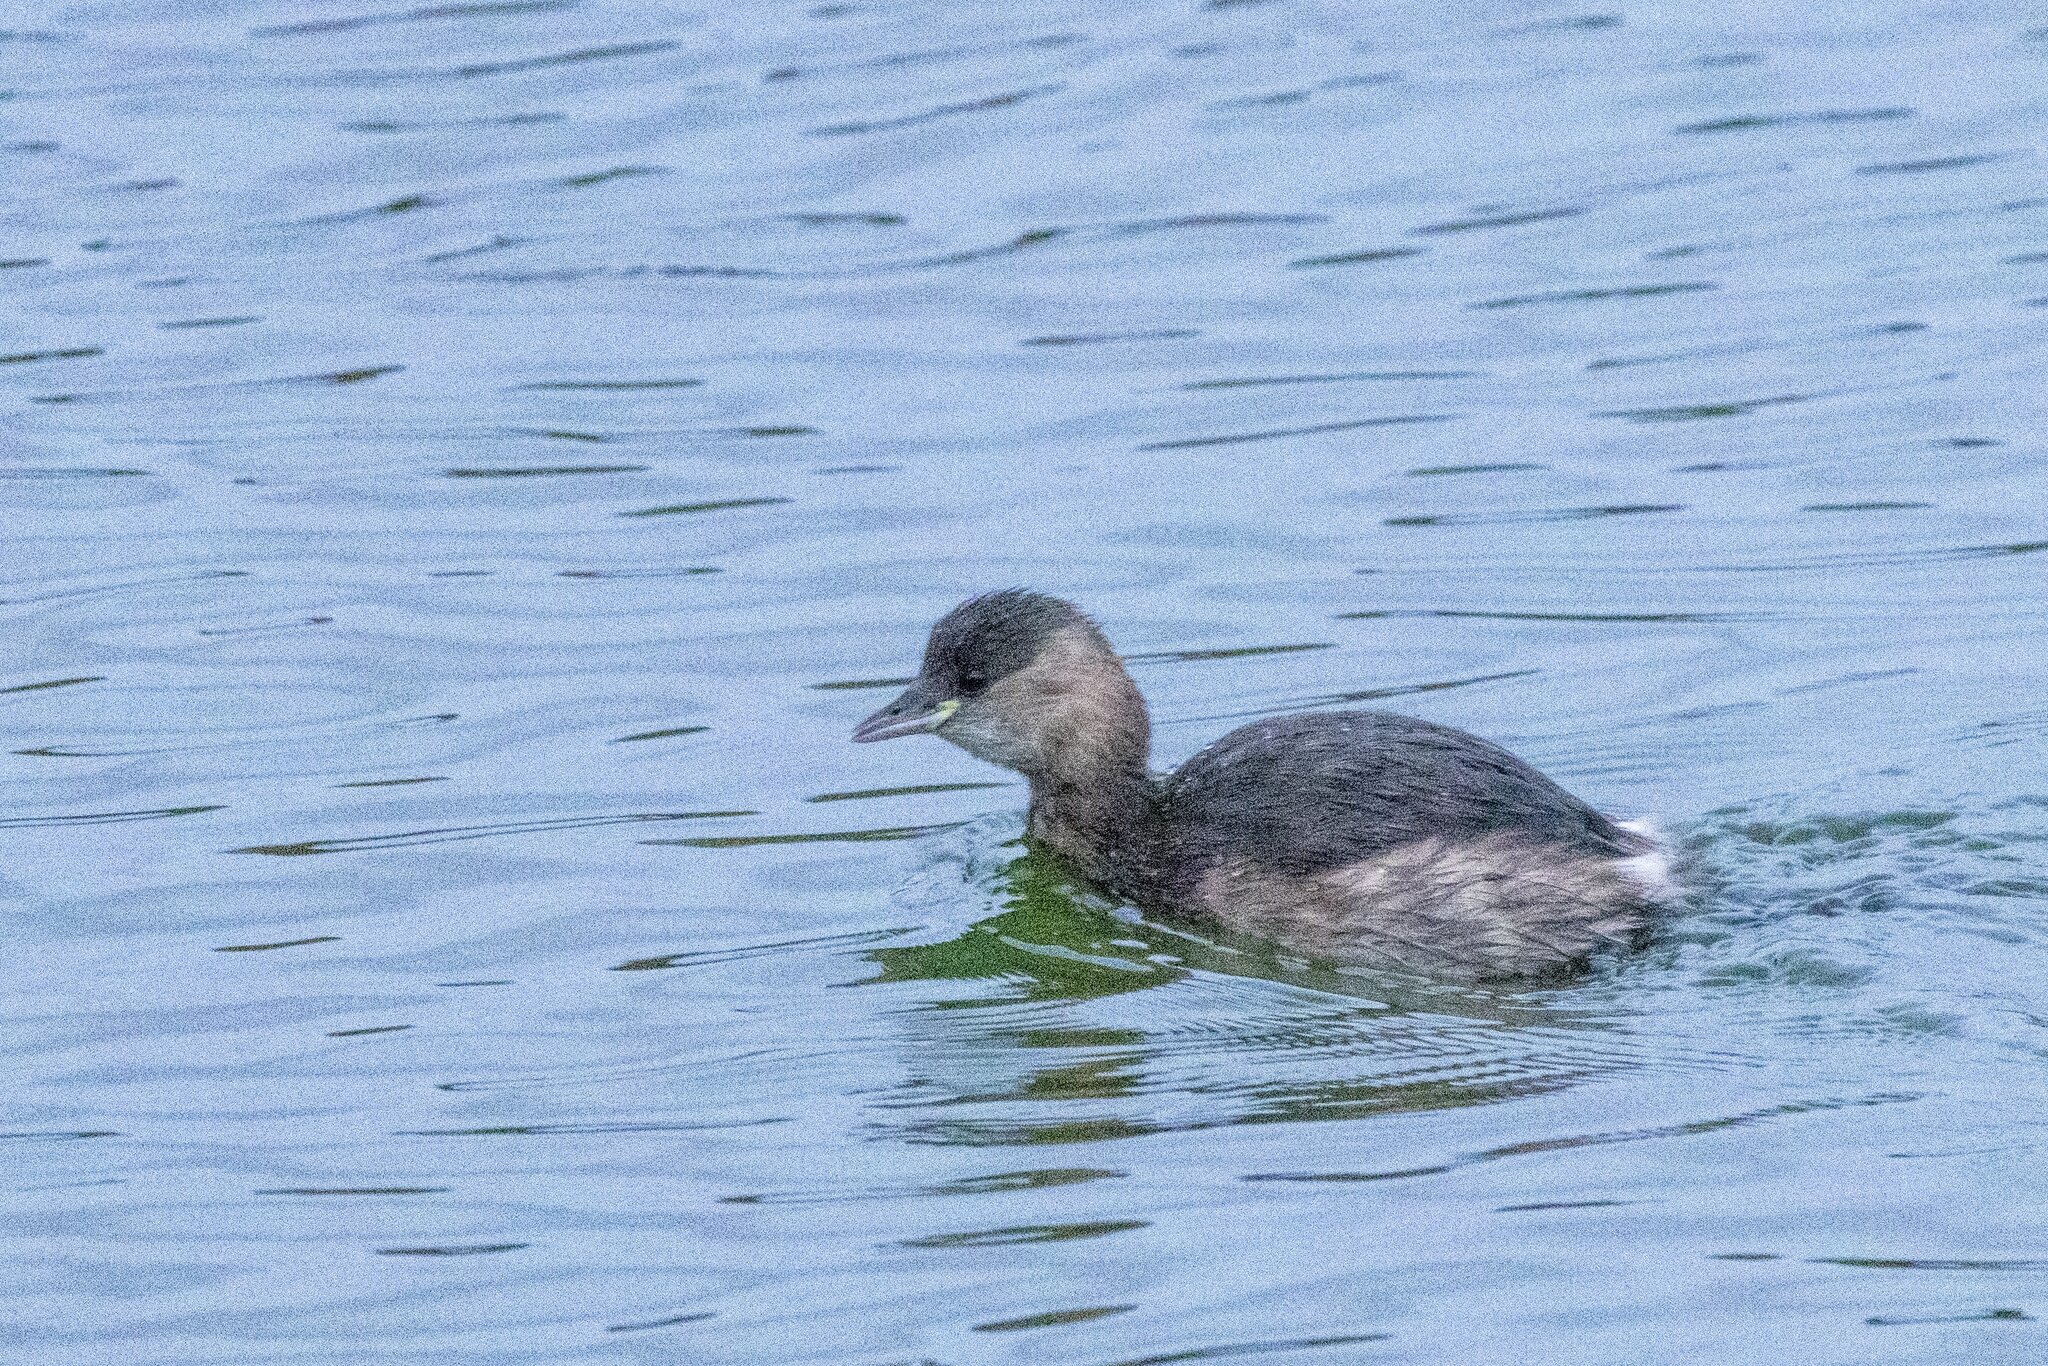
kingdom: Animalia
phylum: Chordata
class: Aves
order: Podicipediformes
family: Podicipedidae
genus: Tachybaptus
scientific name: Tachybaptus ruficollis
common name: Little grebe
